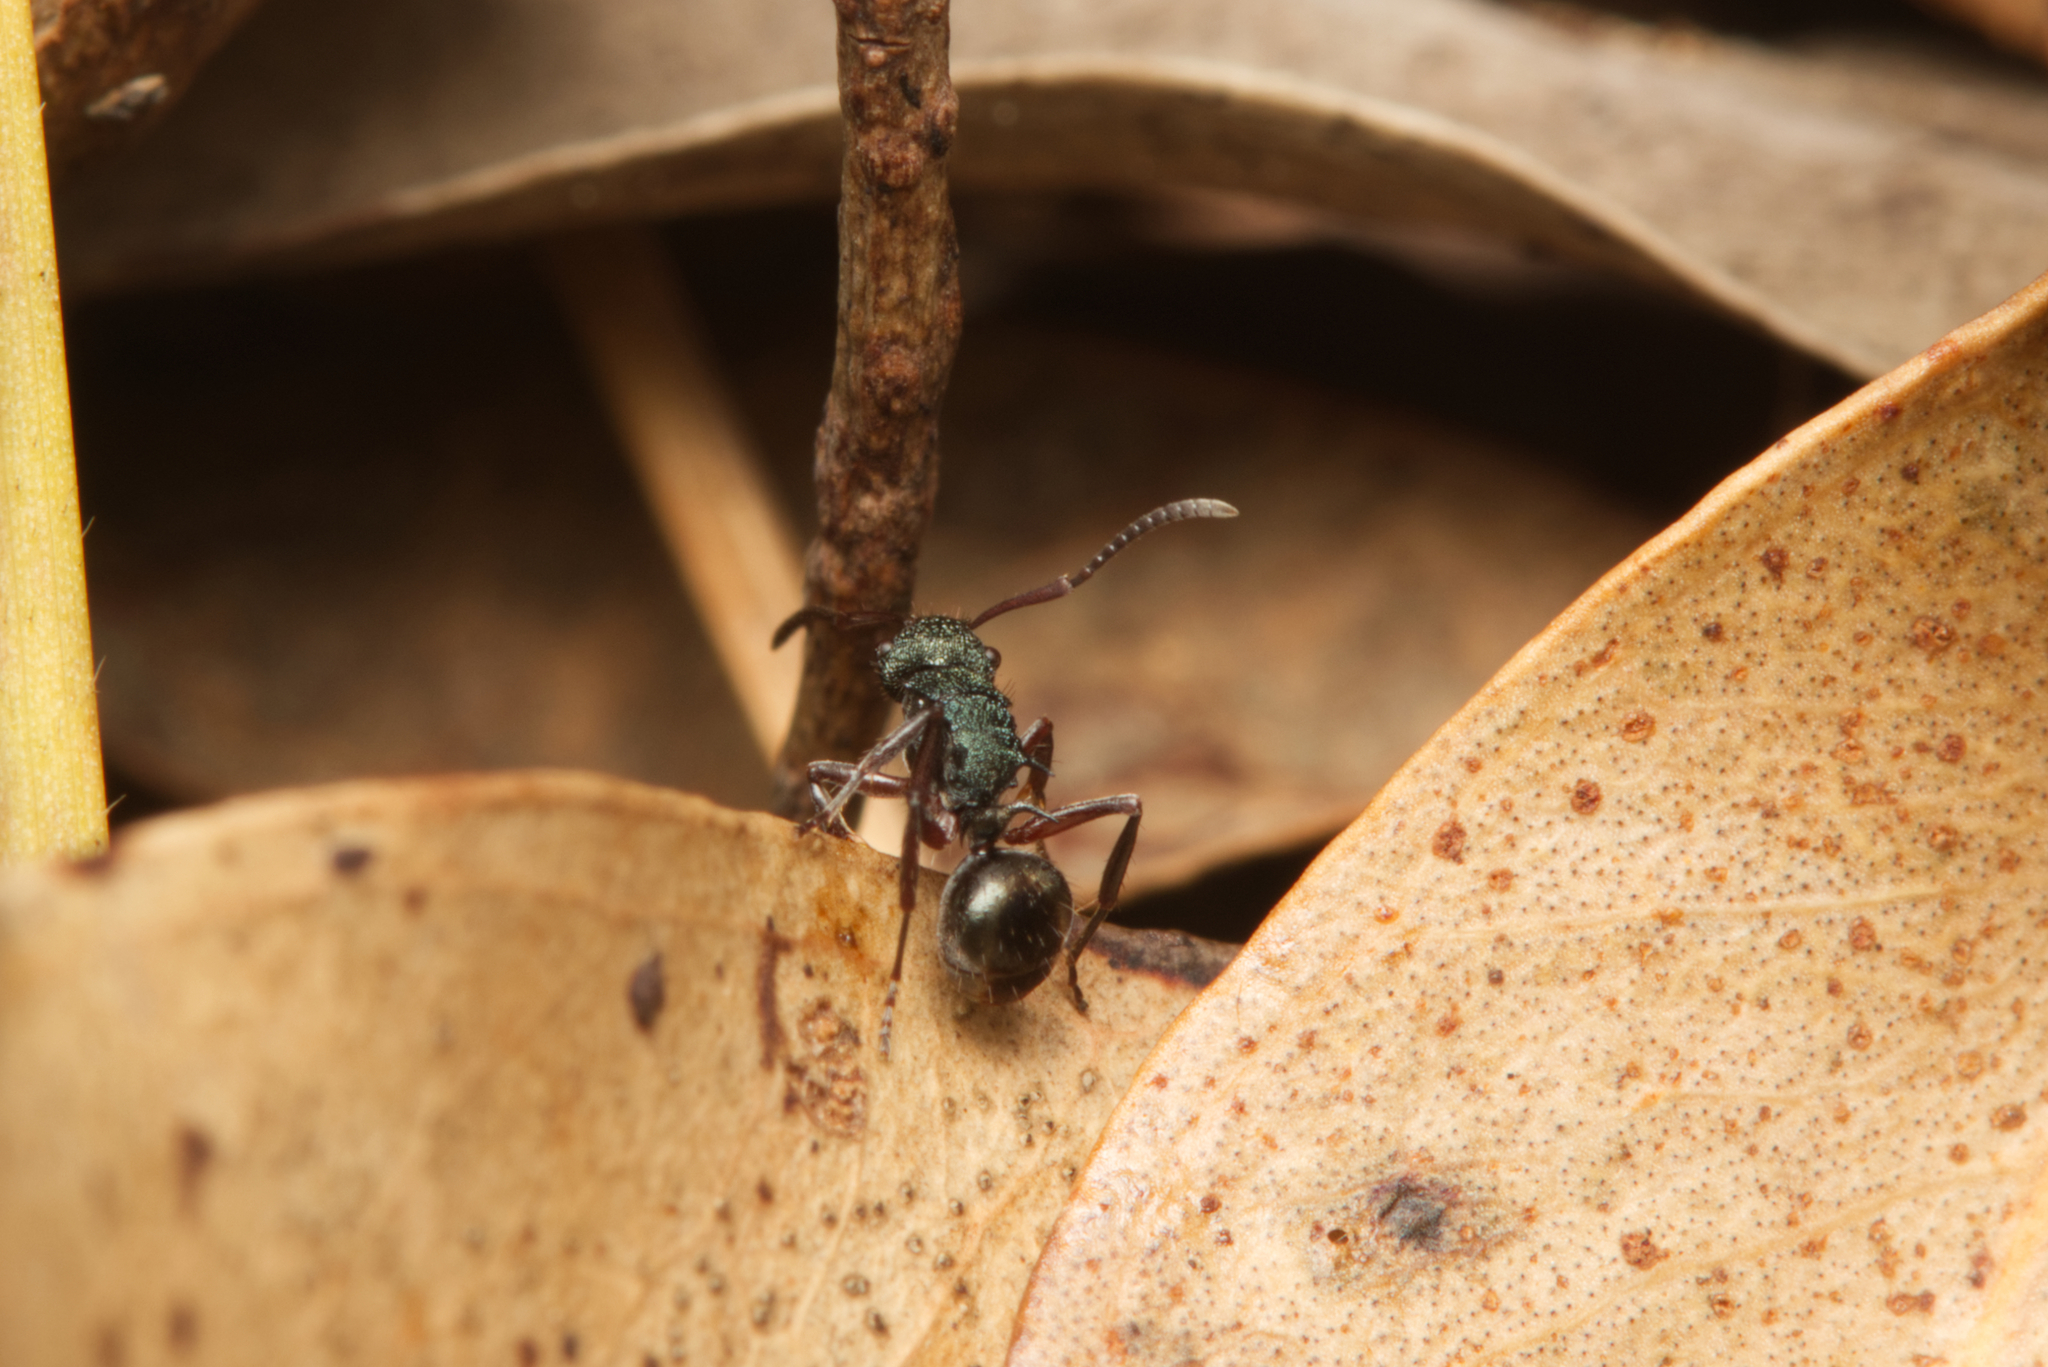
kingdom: Animalia
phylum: Arthropoda
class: Insecta
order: Hymenoptera
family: Formicidae
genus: Polyrhachis
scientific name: Polyrhachis hookeri
